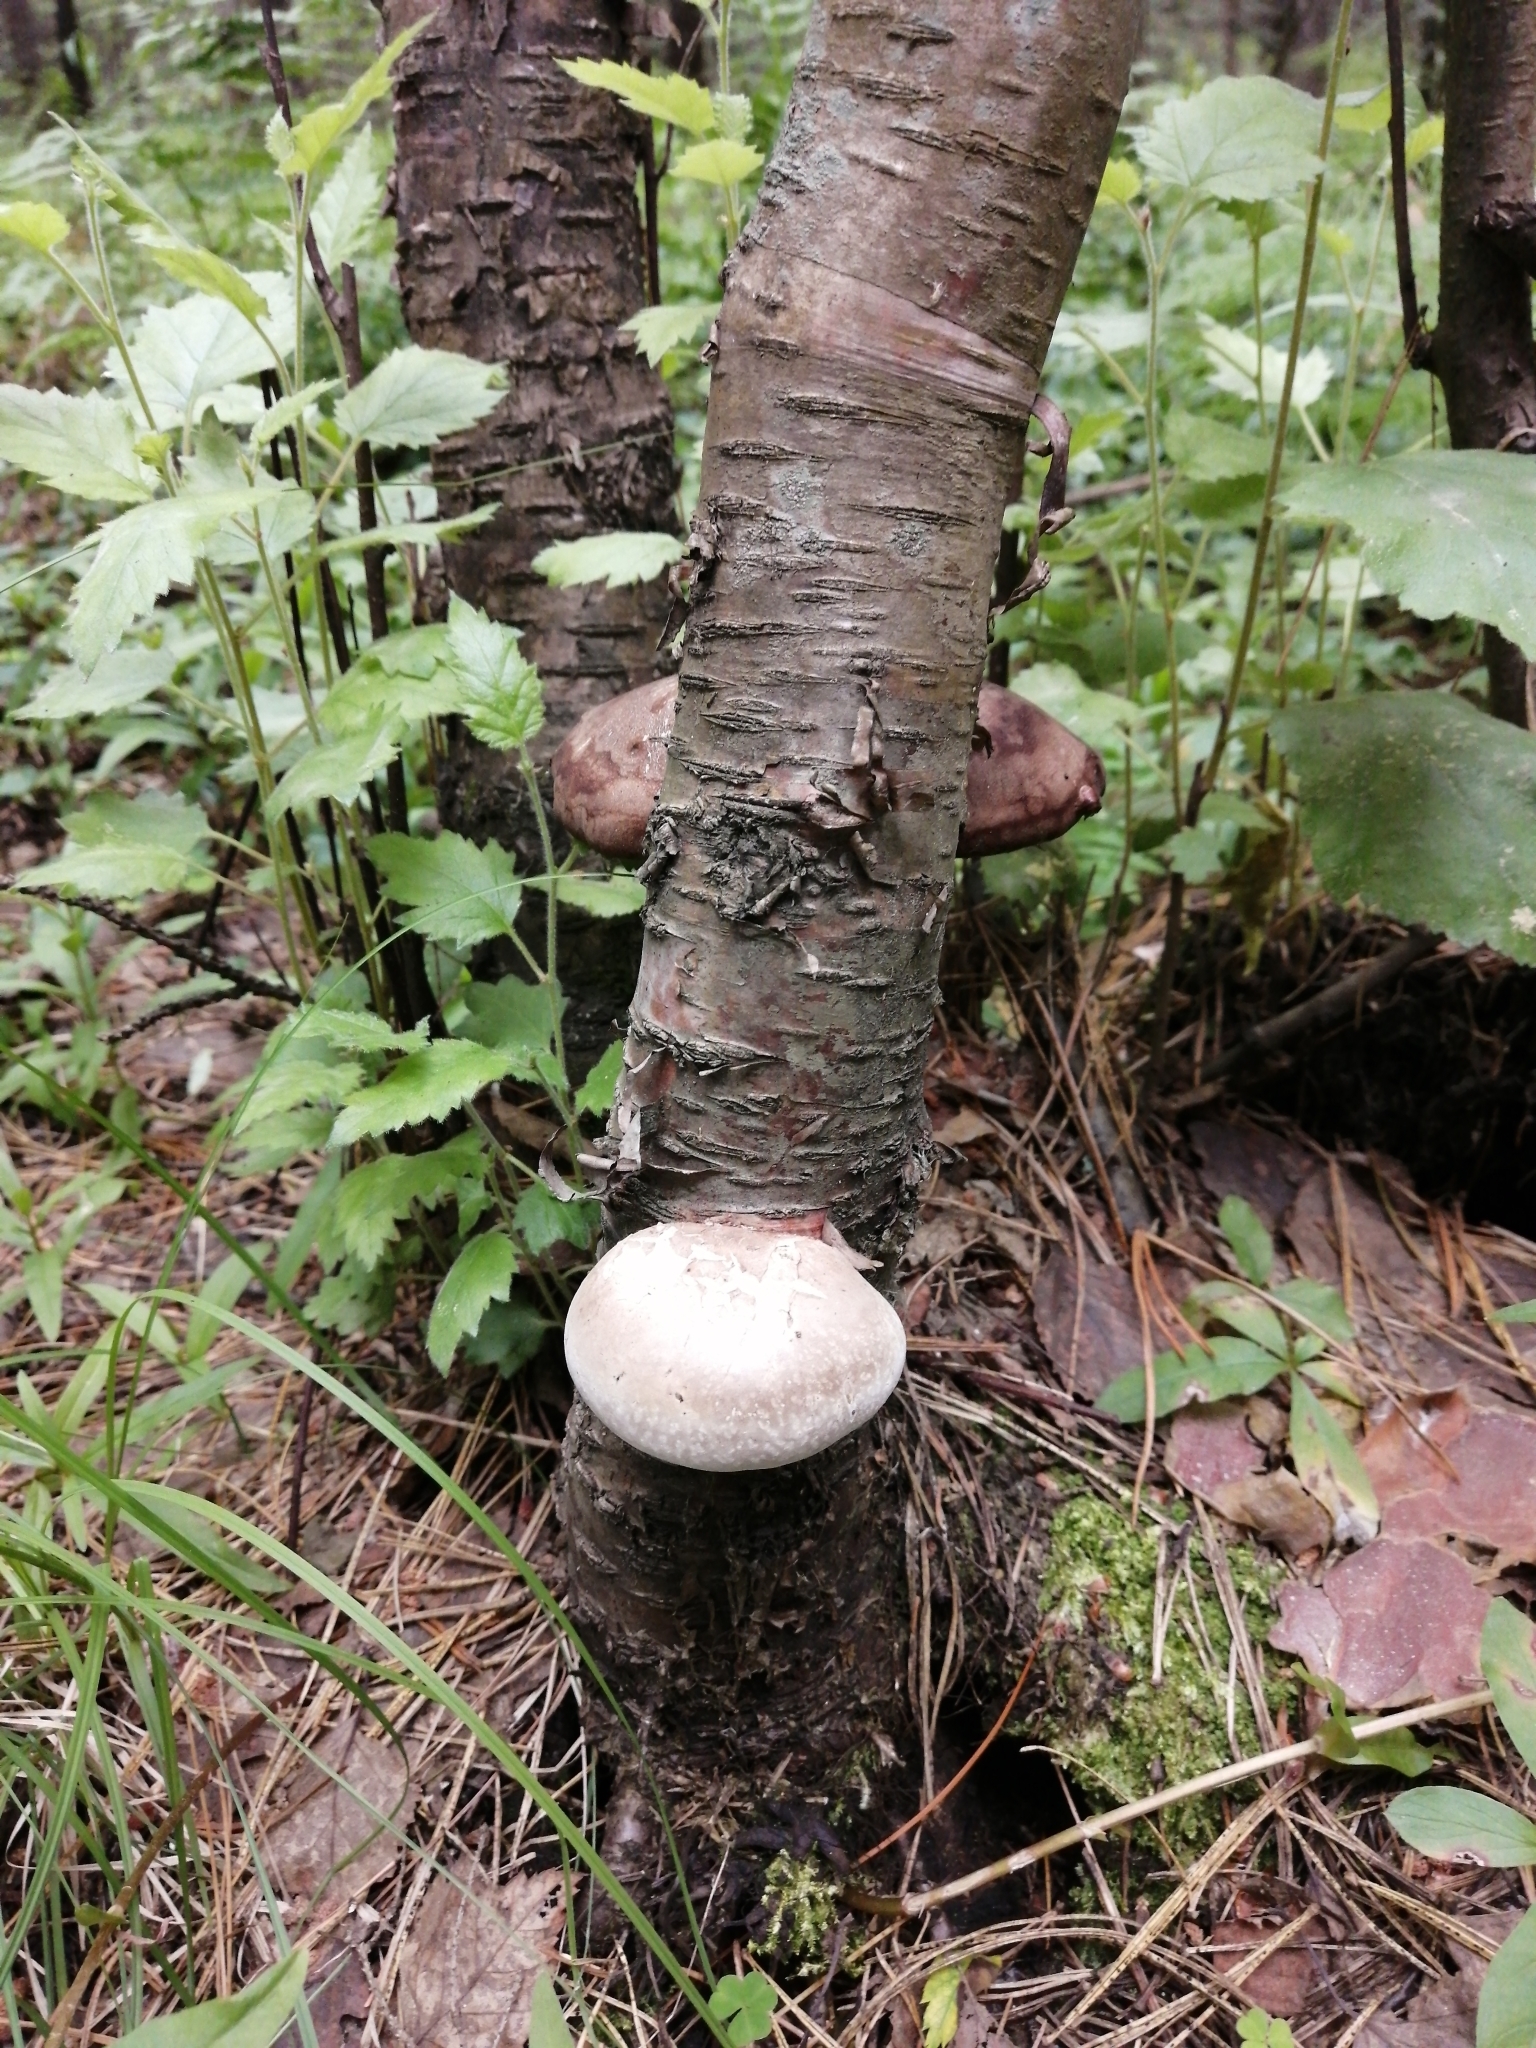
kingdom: Fungi
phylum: Basidiomycota
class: Agaricomycetes
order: Polyporales
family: Fomitopsidaceae
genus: Fomitopsis
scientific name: Fomitopsis betulina
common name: Birch polypore
